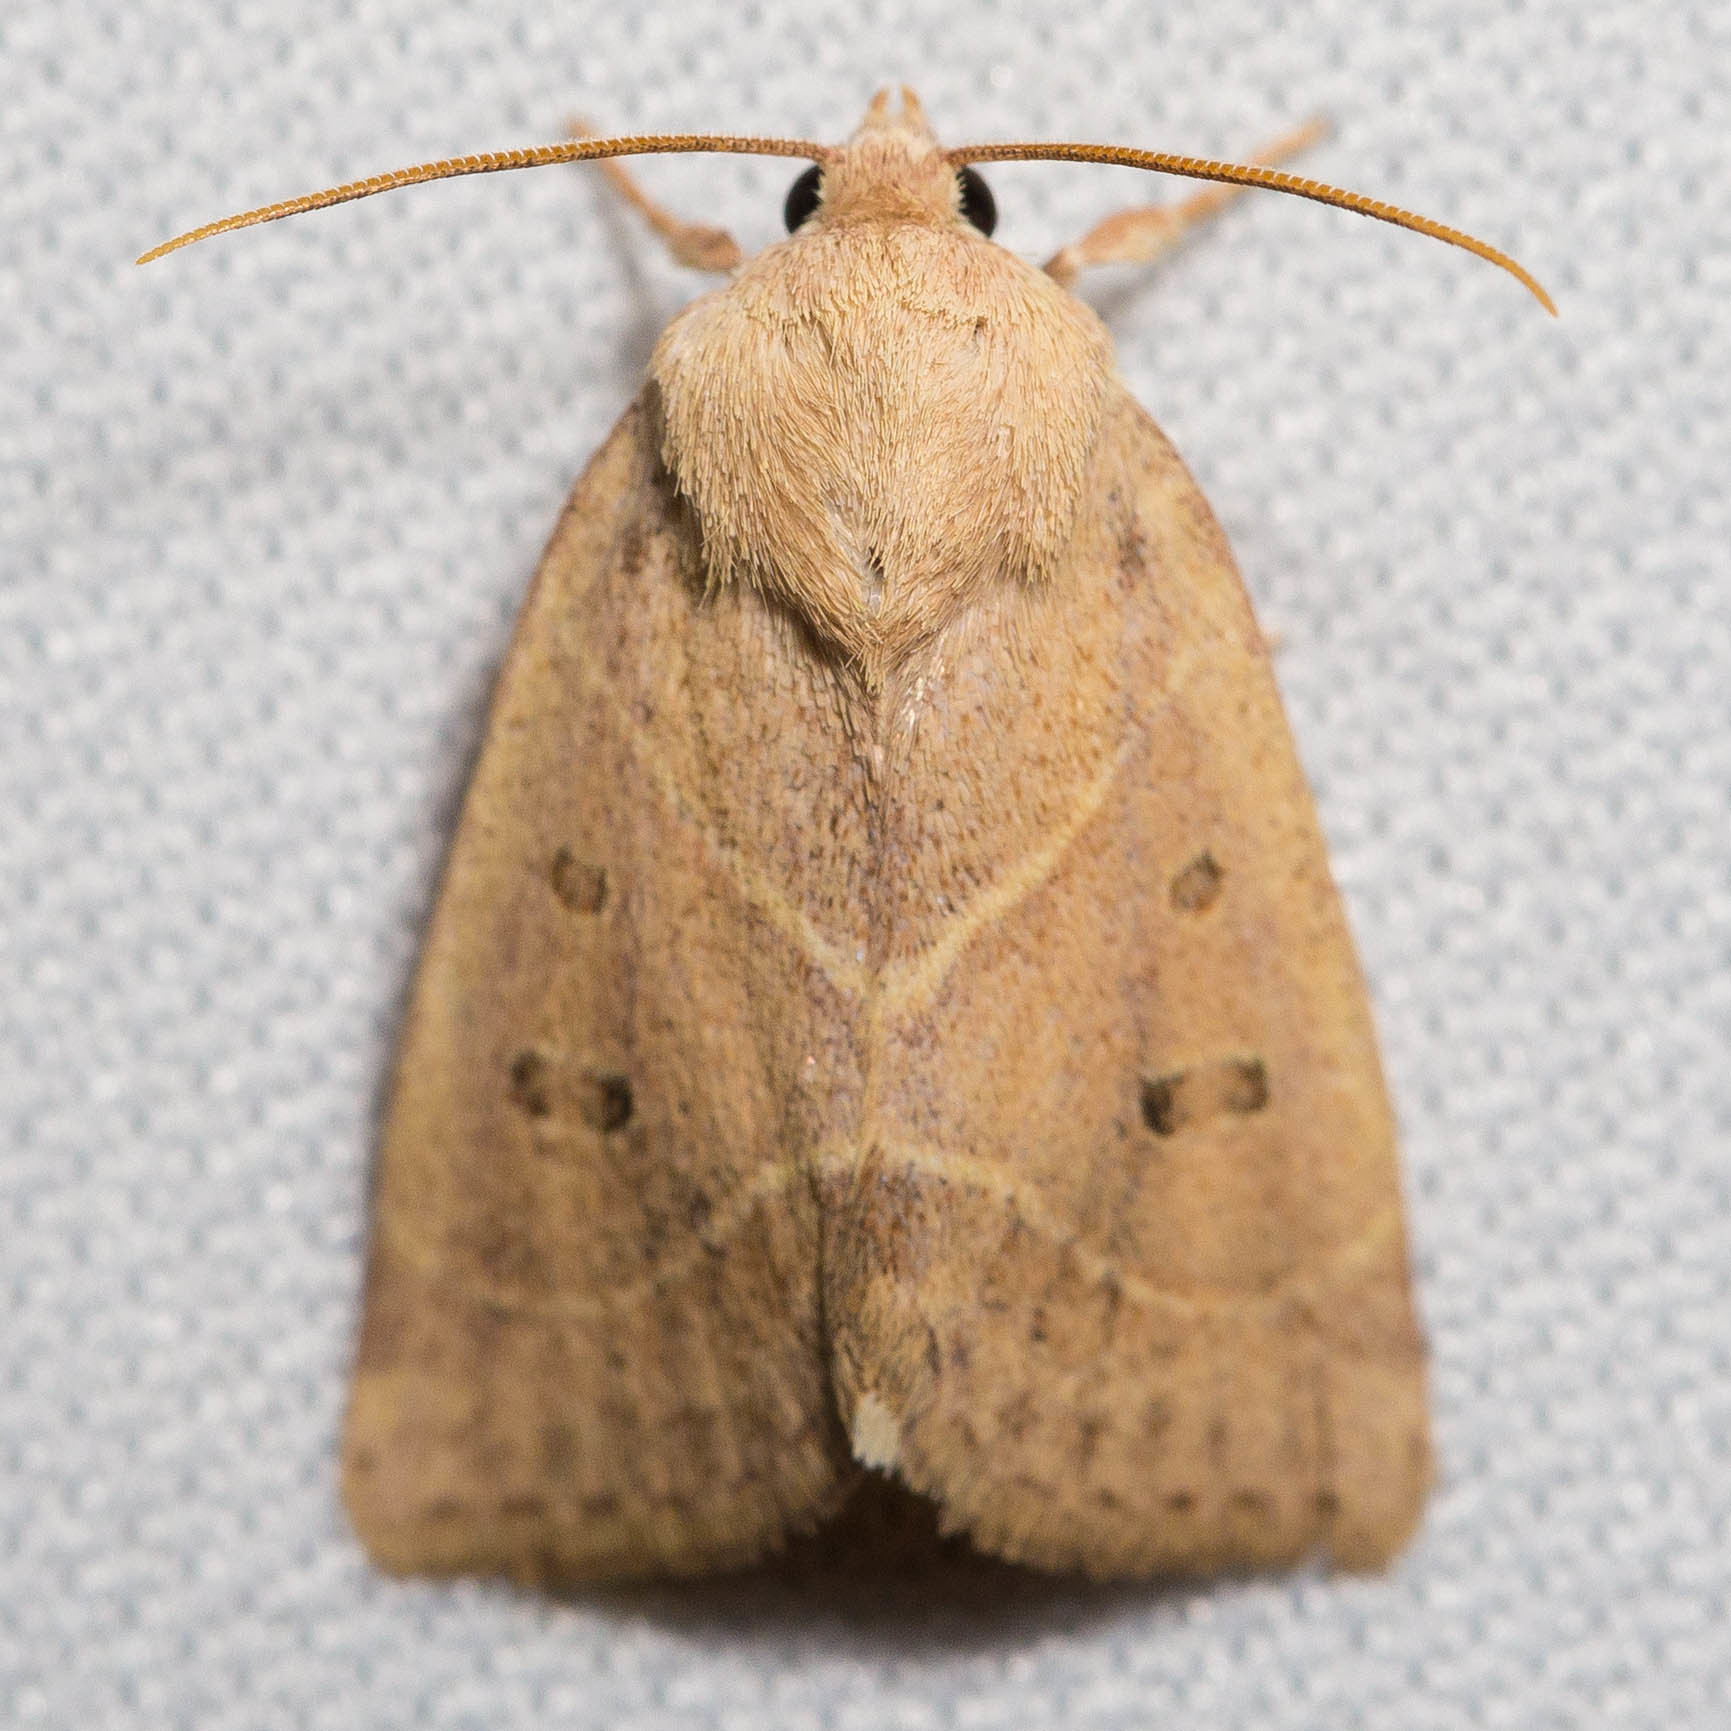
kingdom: Animalia
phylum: Arthropoda
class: Insecta
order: Lepidoptera
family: Noctuidae
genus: Cosmia
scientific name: Cosmia calami
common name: American dun-bar moth
